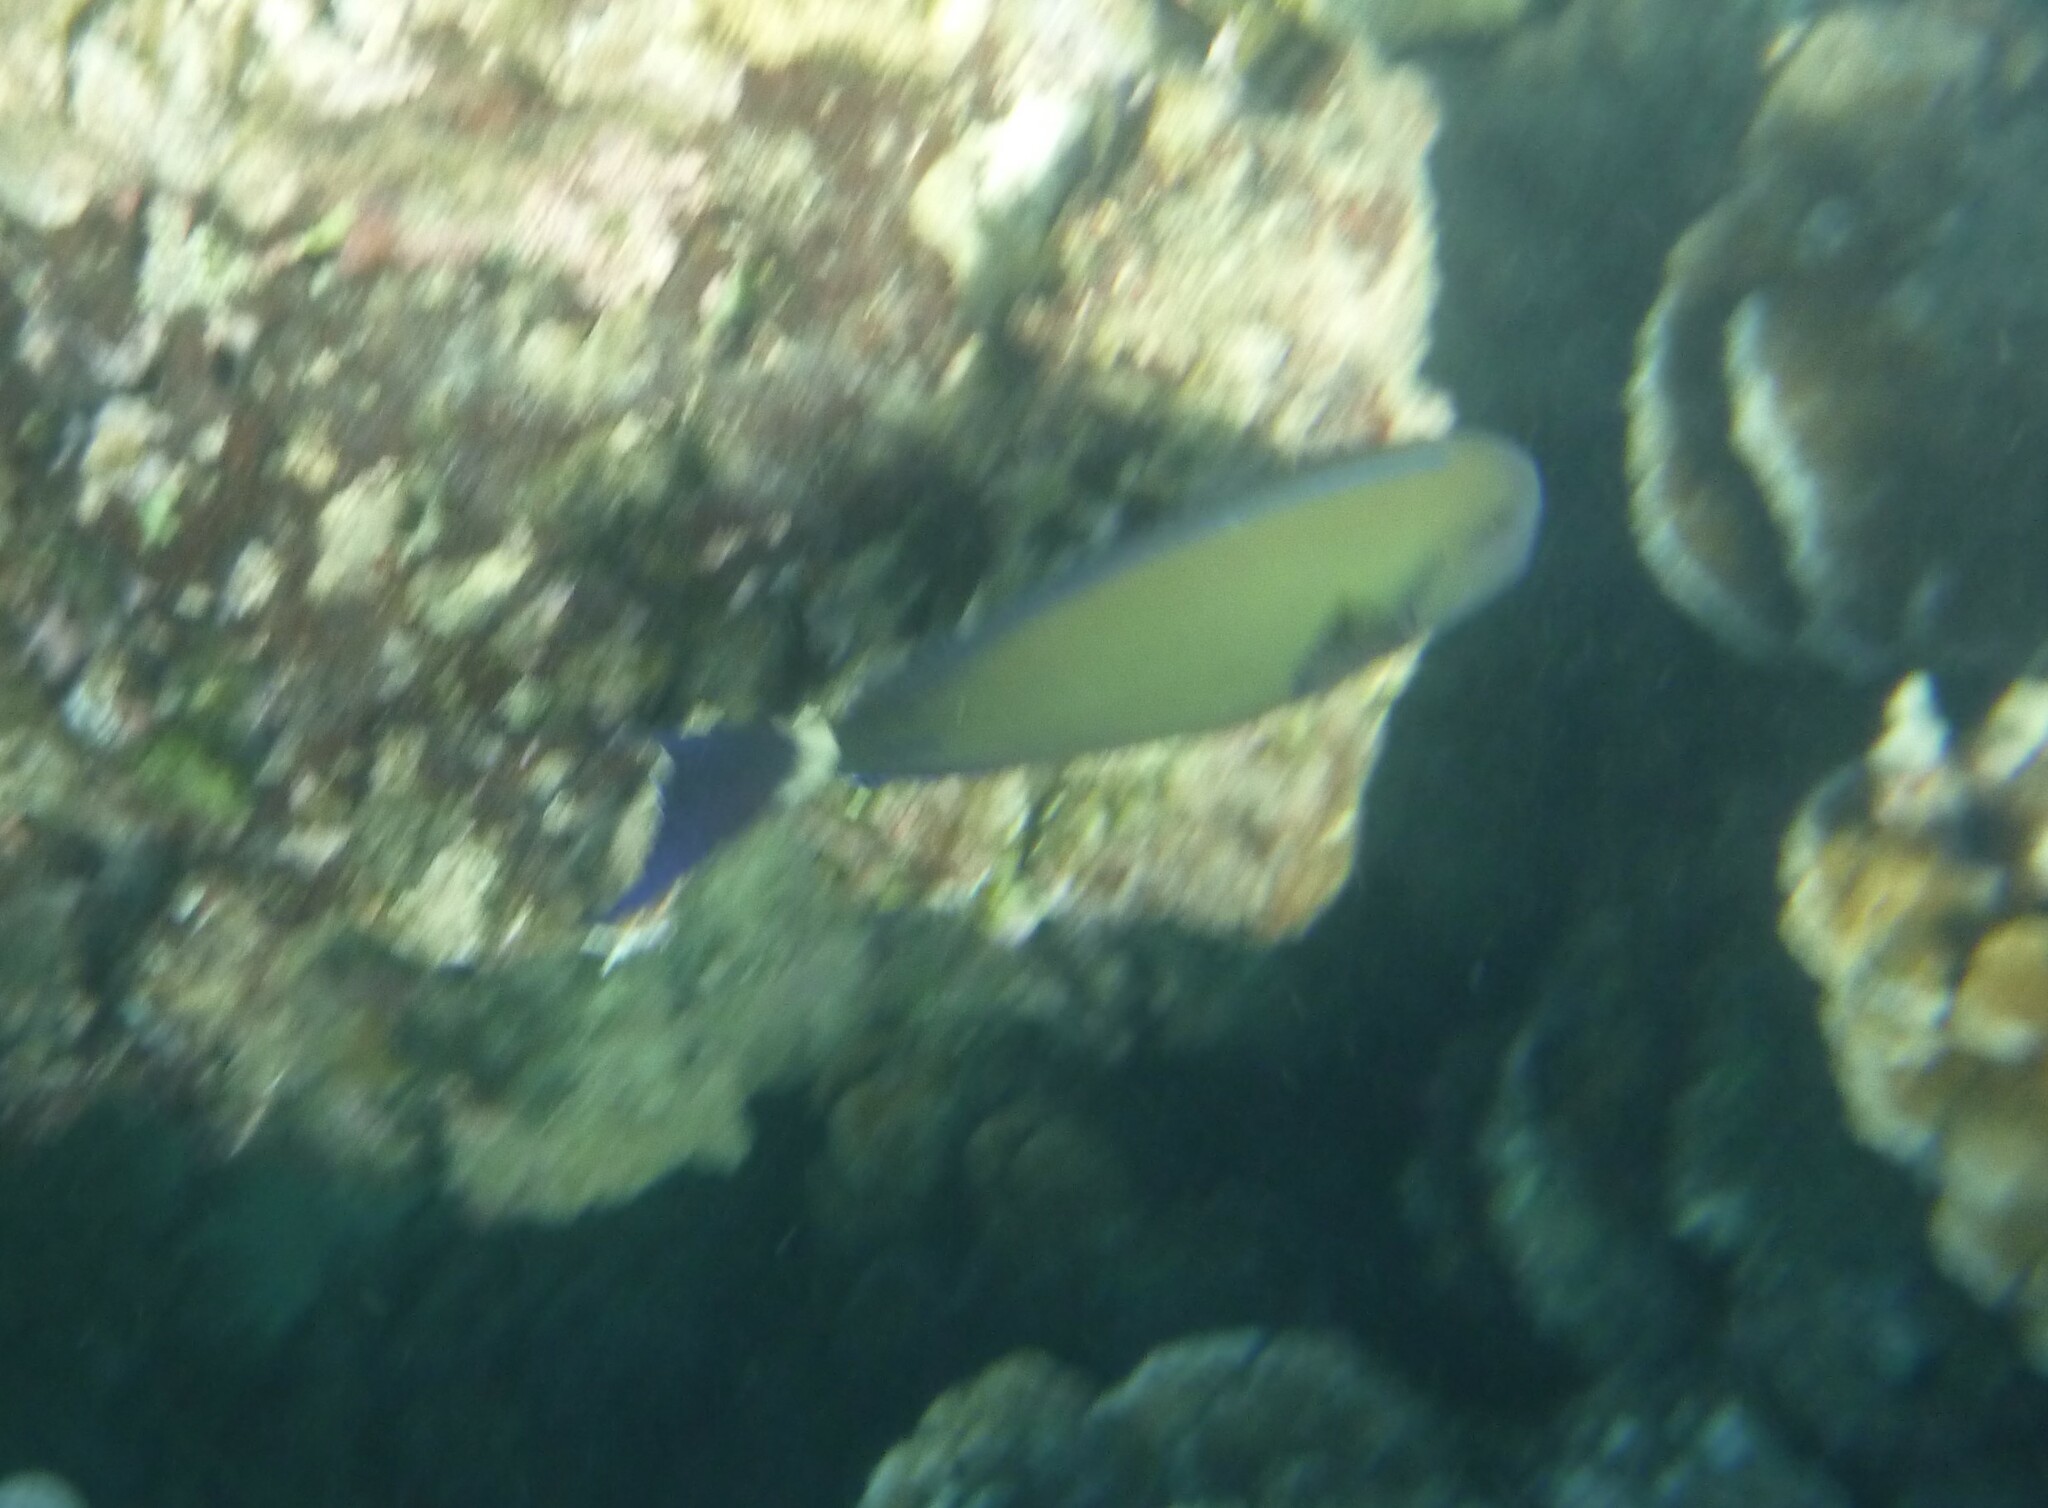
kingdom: Animalia
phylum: Chordata
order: Perciformes
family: Acanthuridae
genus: Acanthurus
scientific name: Acanthurus blochii
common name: Blue-banded pualu
